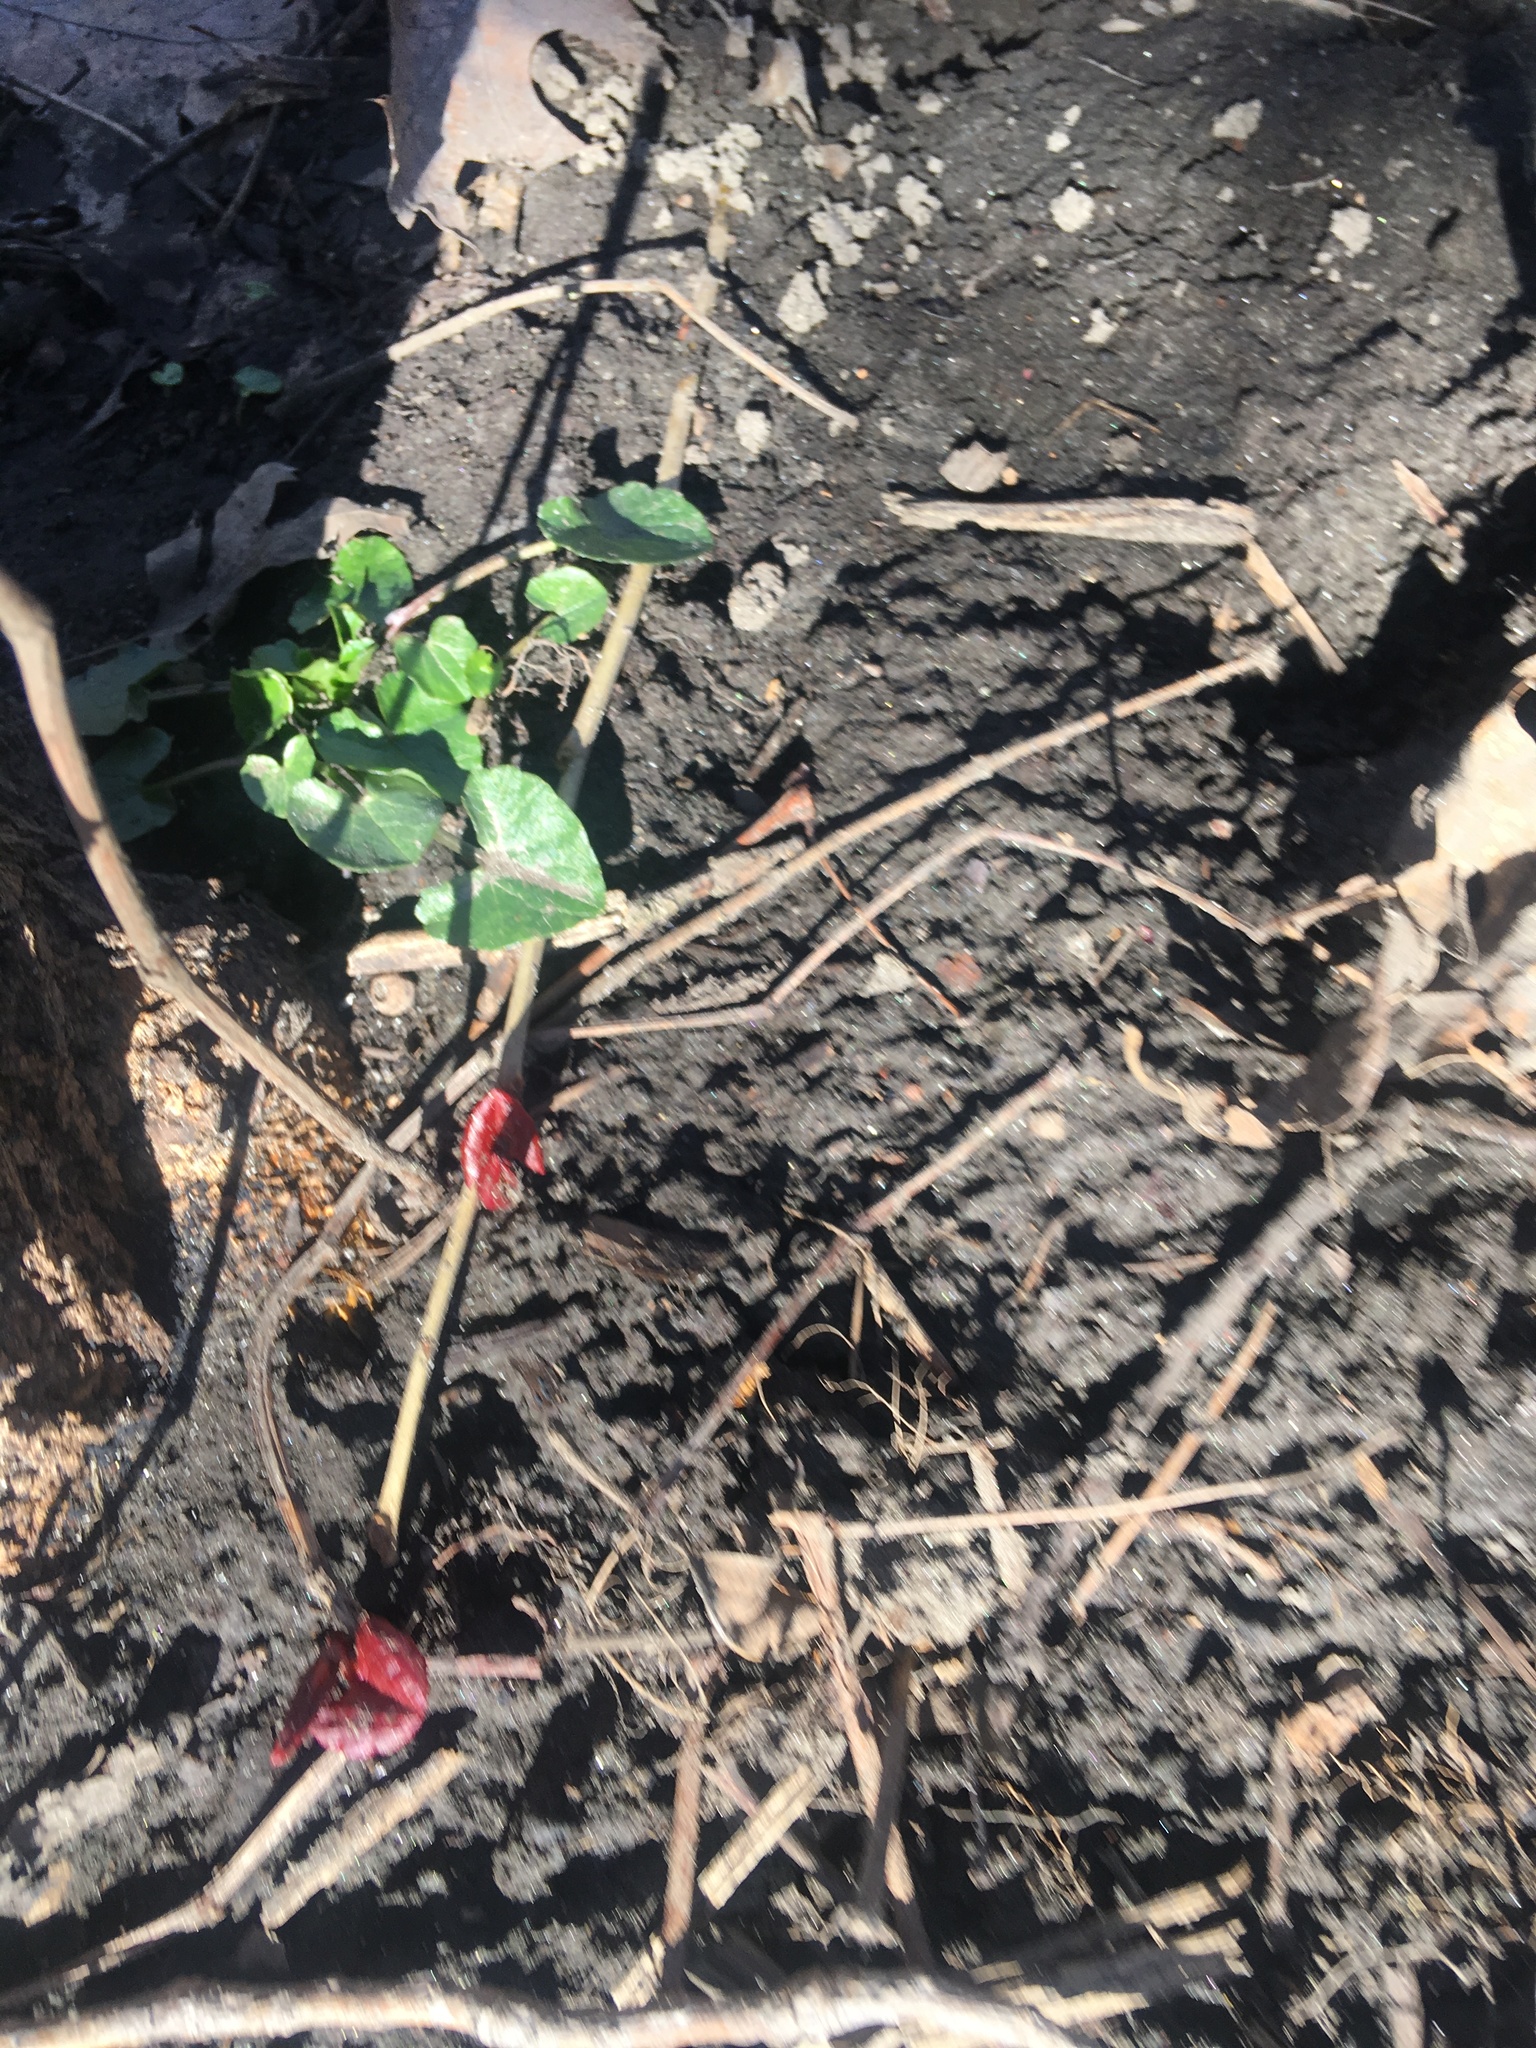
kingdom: Plantae
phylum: Tracheophyta
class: Magnoliopsida
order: Ranunculales
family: Ranunculaceae
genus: Ficaria
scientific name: Ficaria verna
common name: Lesser celandine
